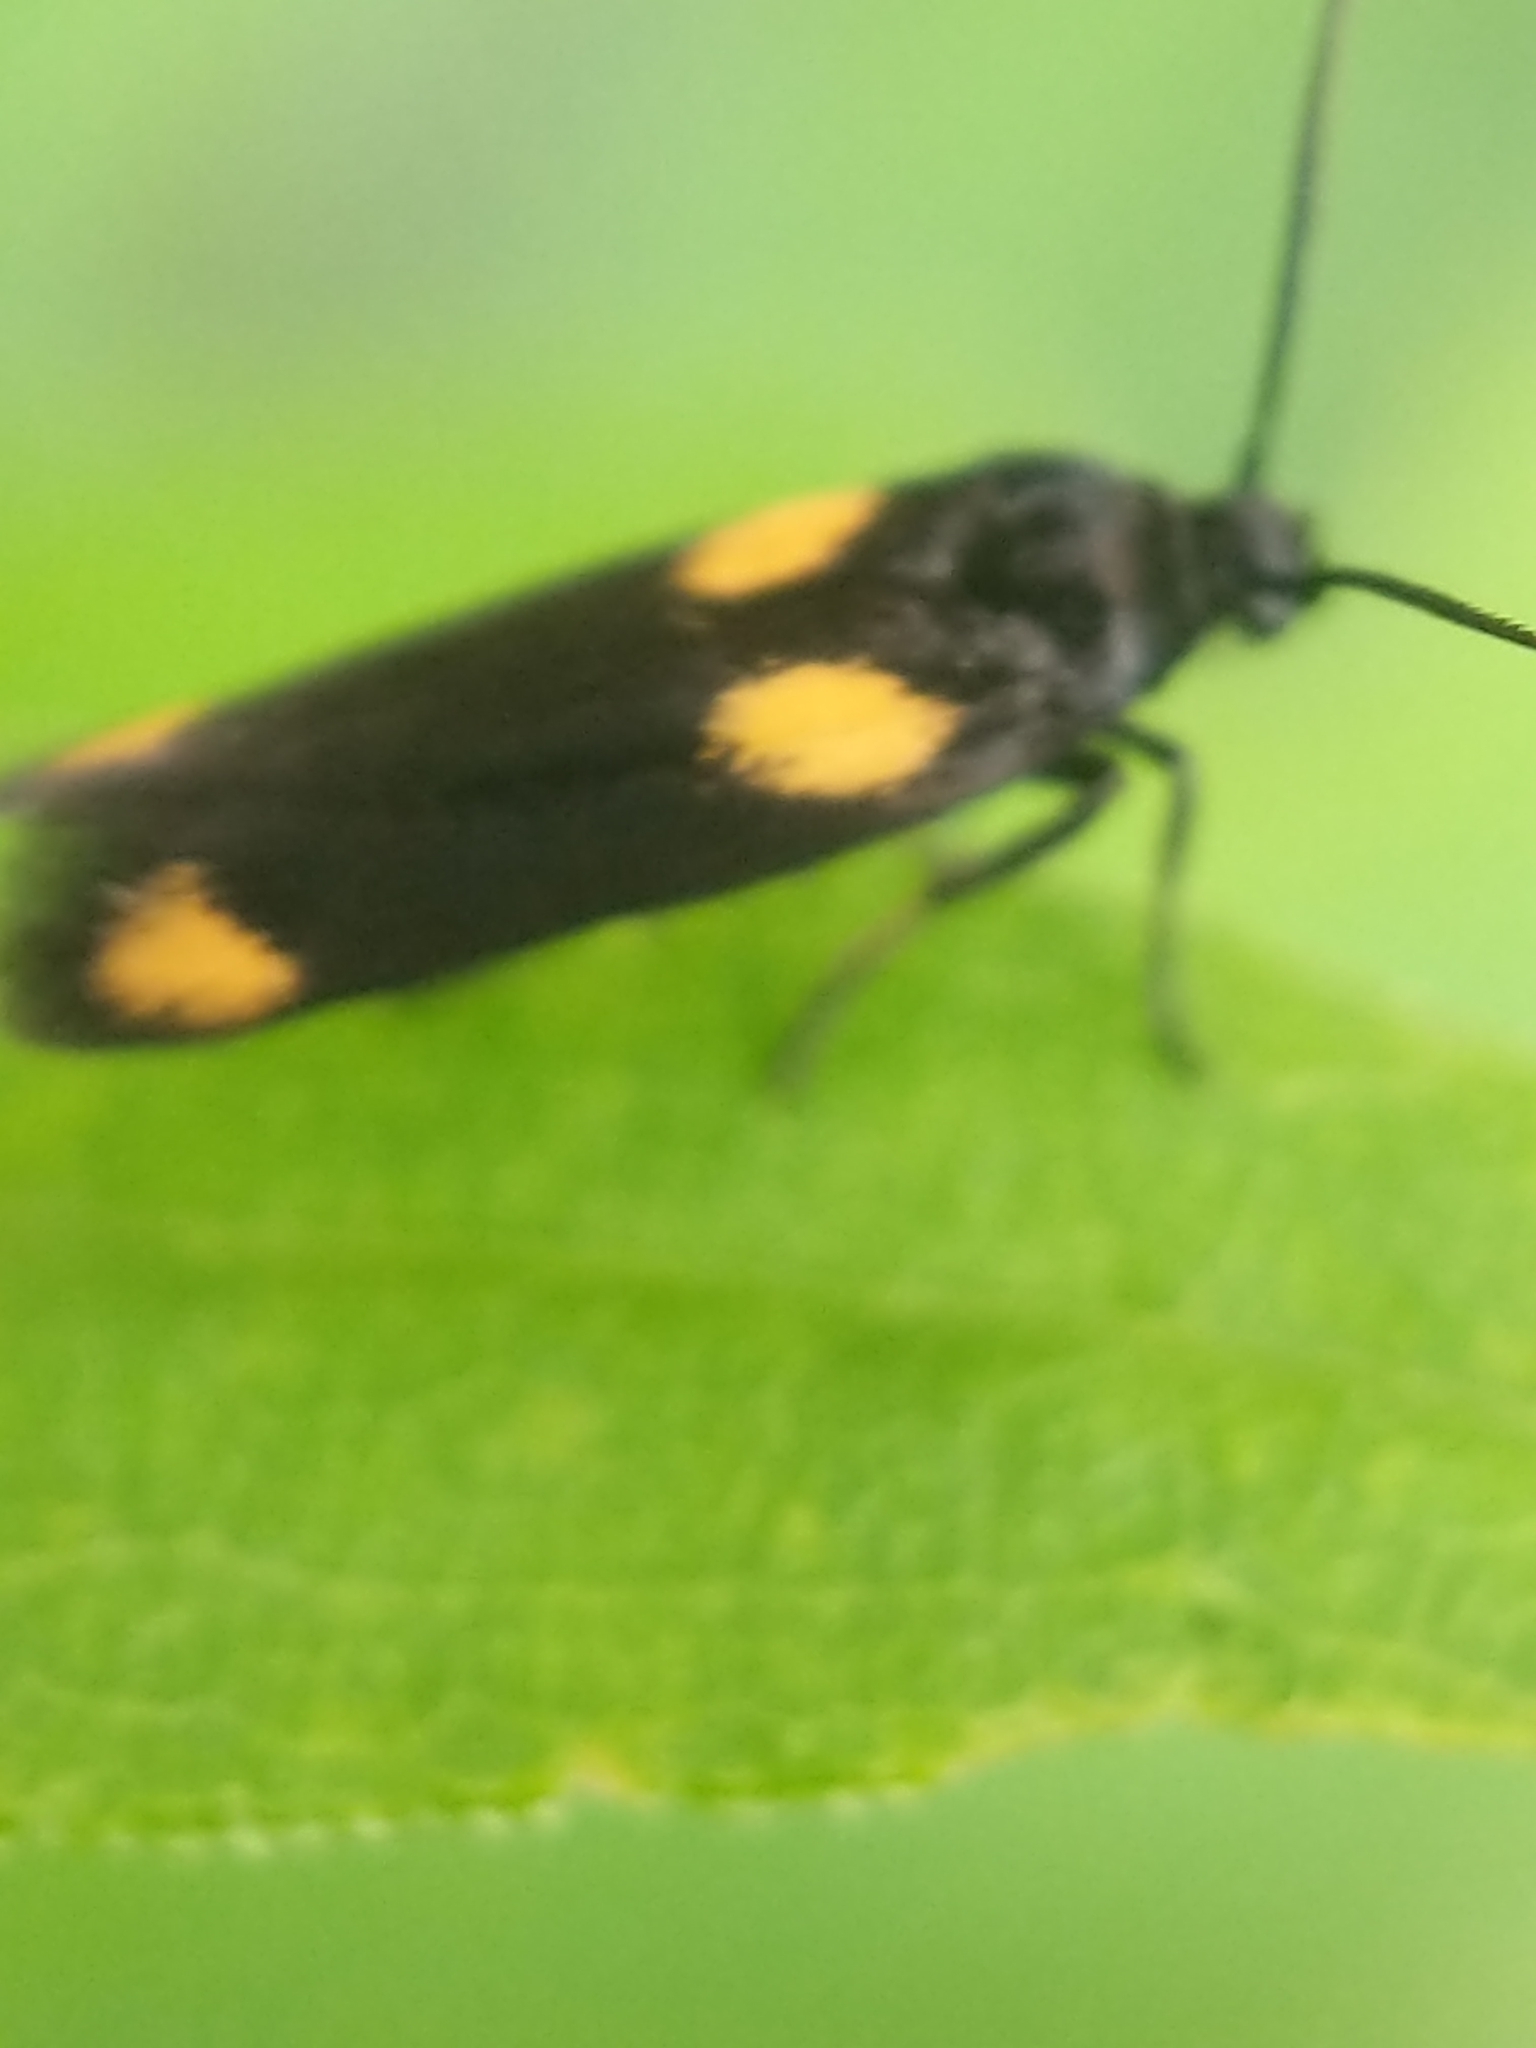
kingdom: Animalia
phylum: Arthropoda
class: Insecta
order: Lepidoptera
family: Scythrididae
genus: Scythris
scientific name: Scythris sinensis
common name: Kentish owlet
